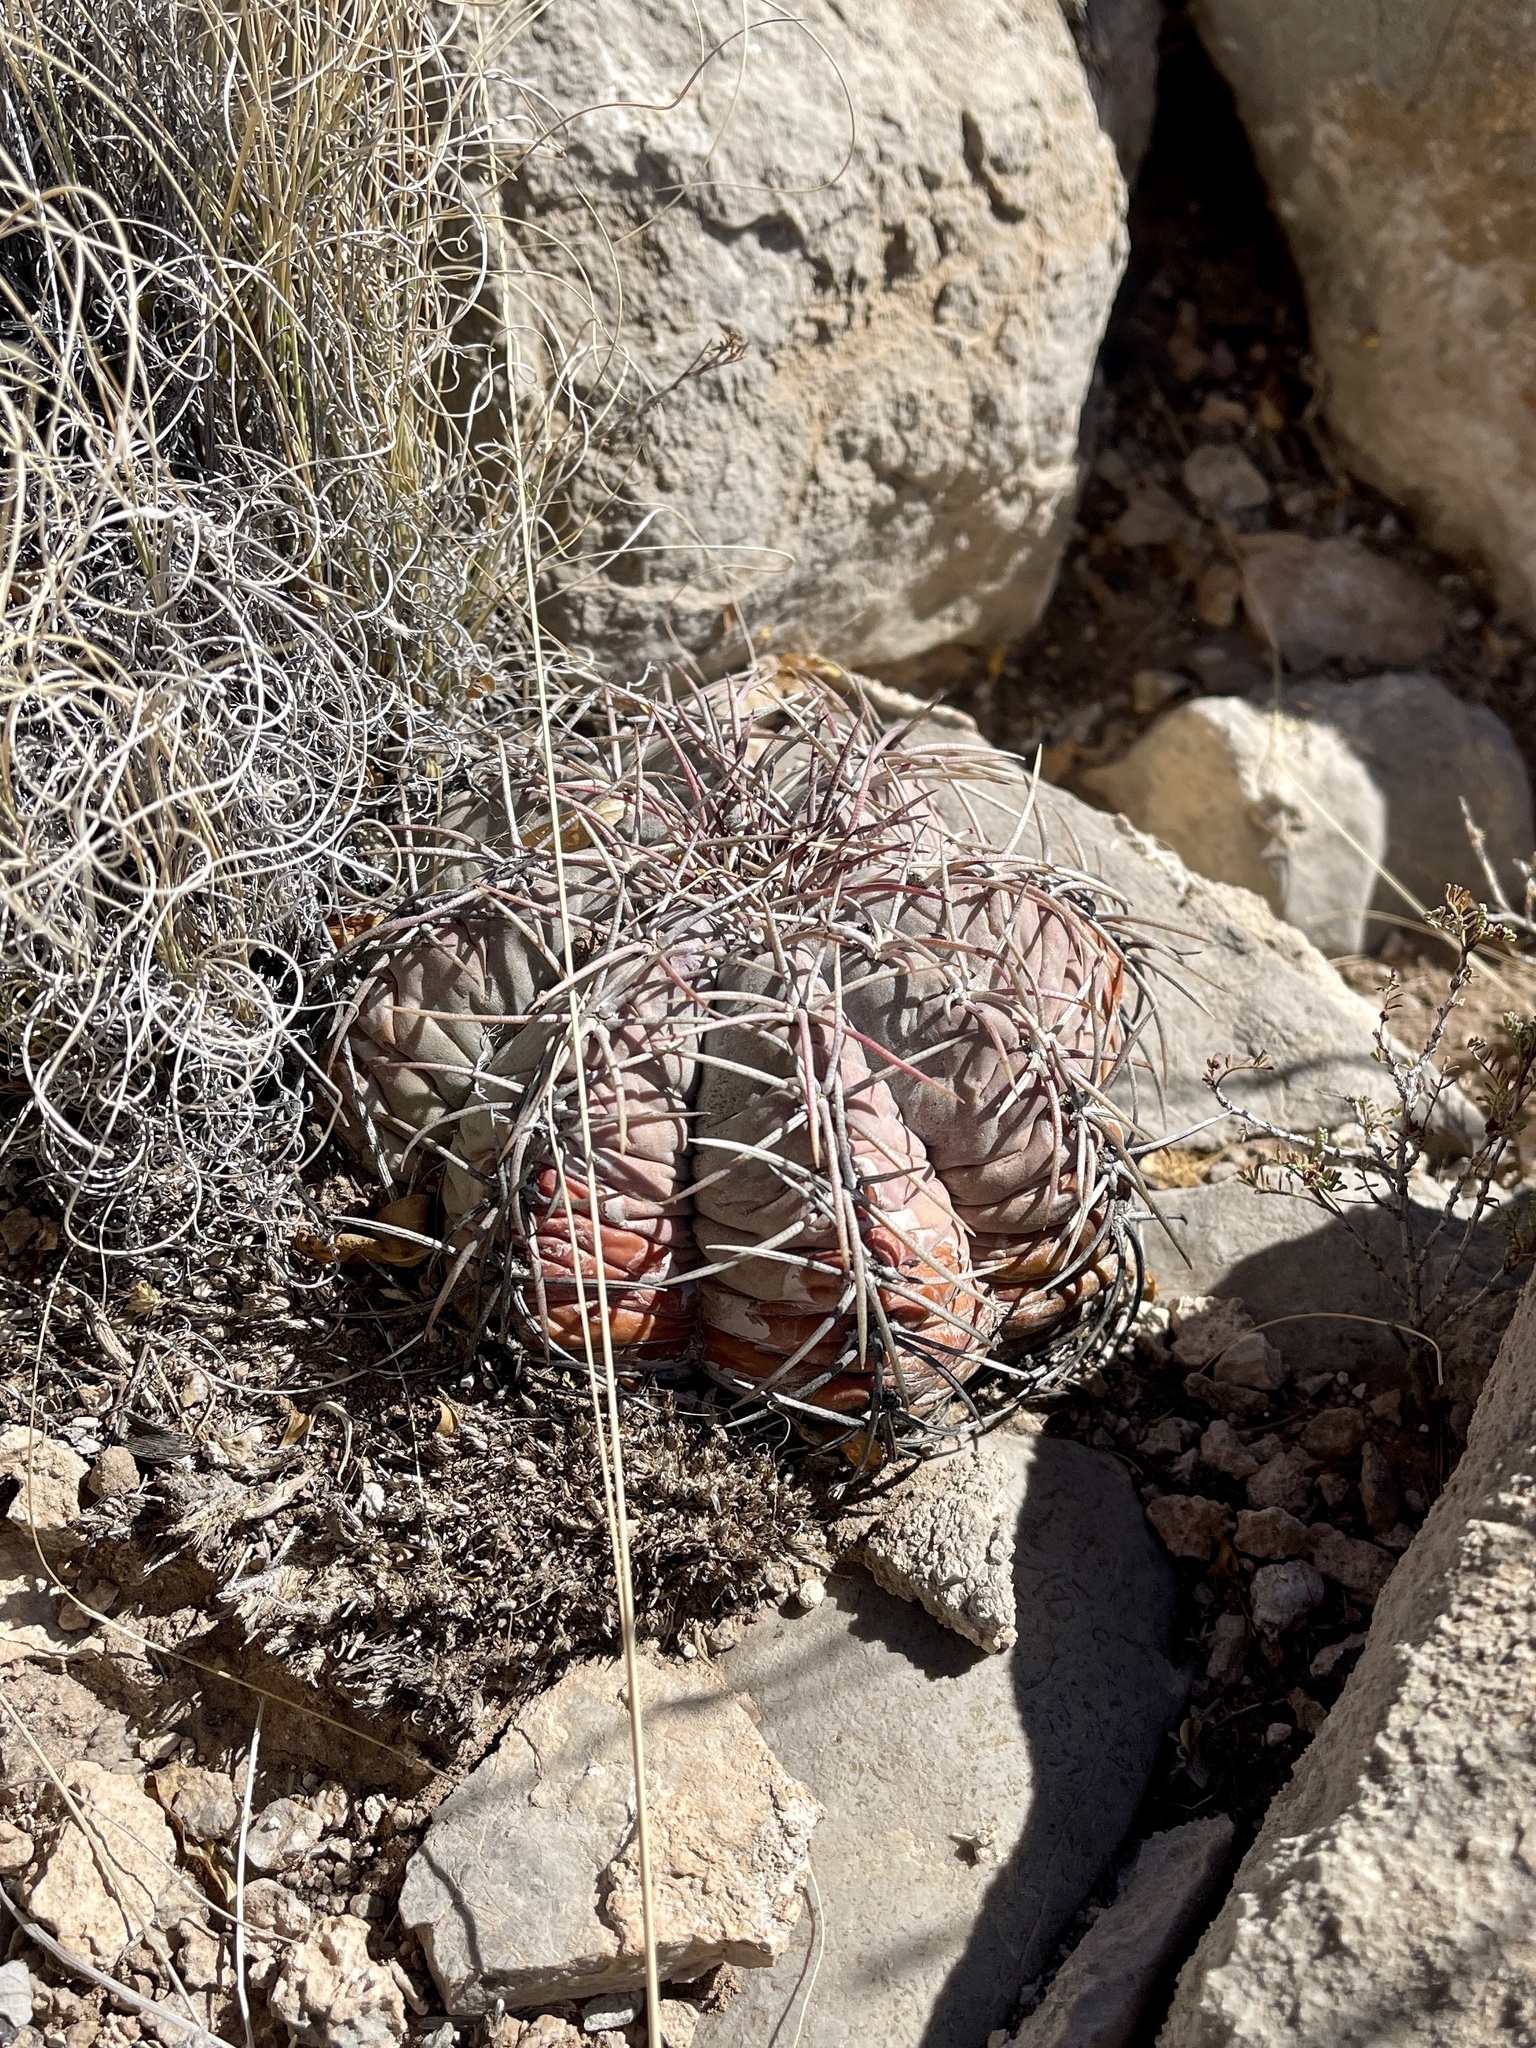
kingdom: Plantae
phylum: Tracheophyta
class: Magnoliopsida
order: Caryophyllales
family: Cactaceae
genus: Echinocactus
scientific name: Echinocactus horizonthalonius
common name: Devilshead
